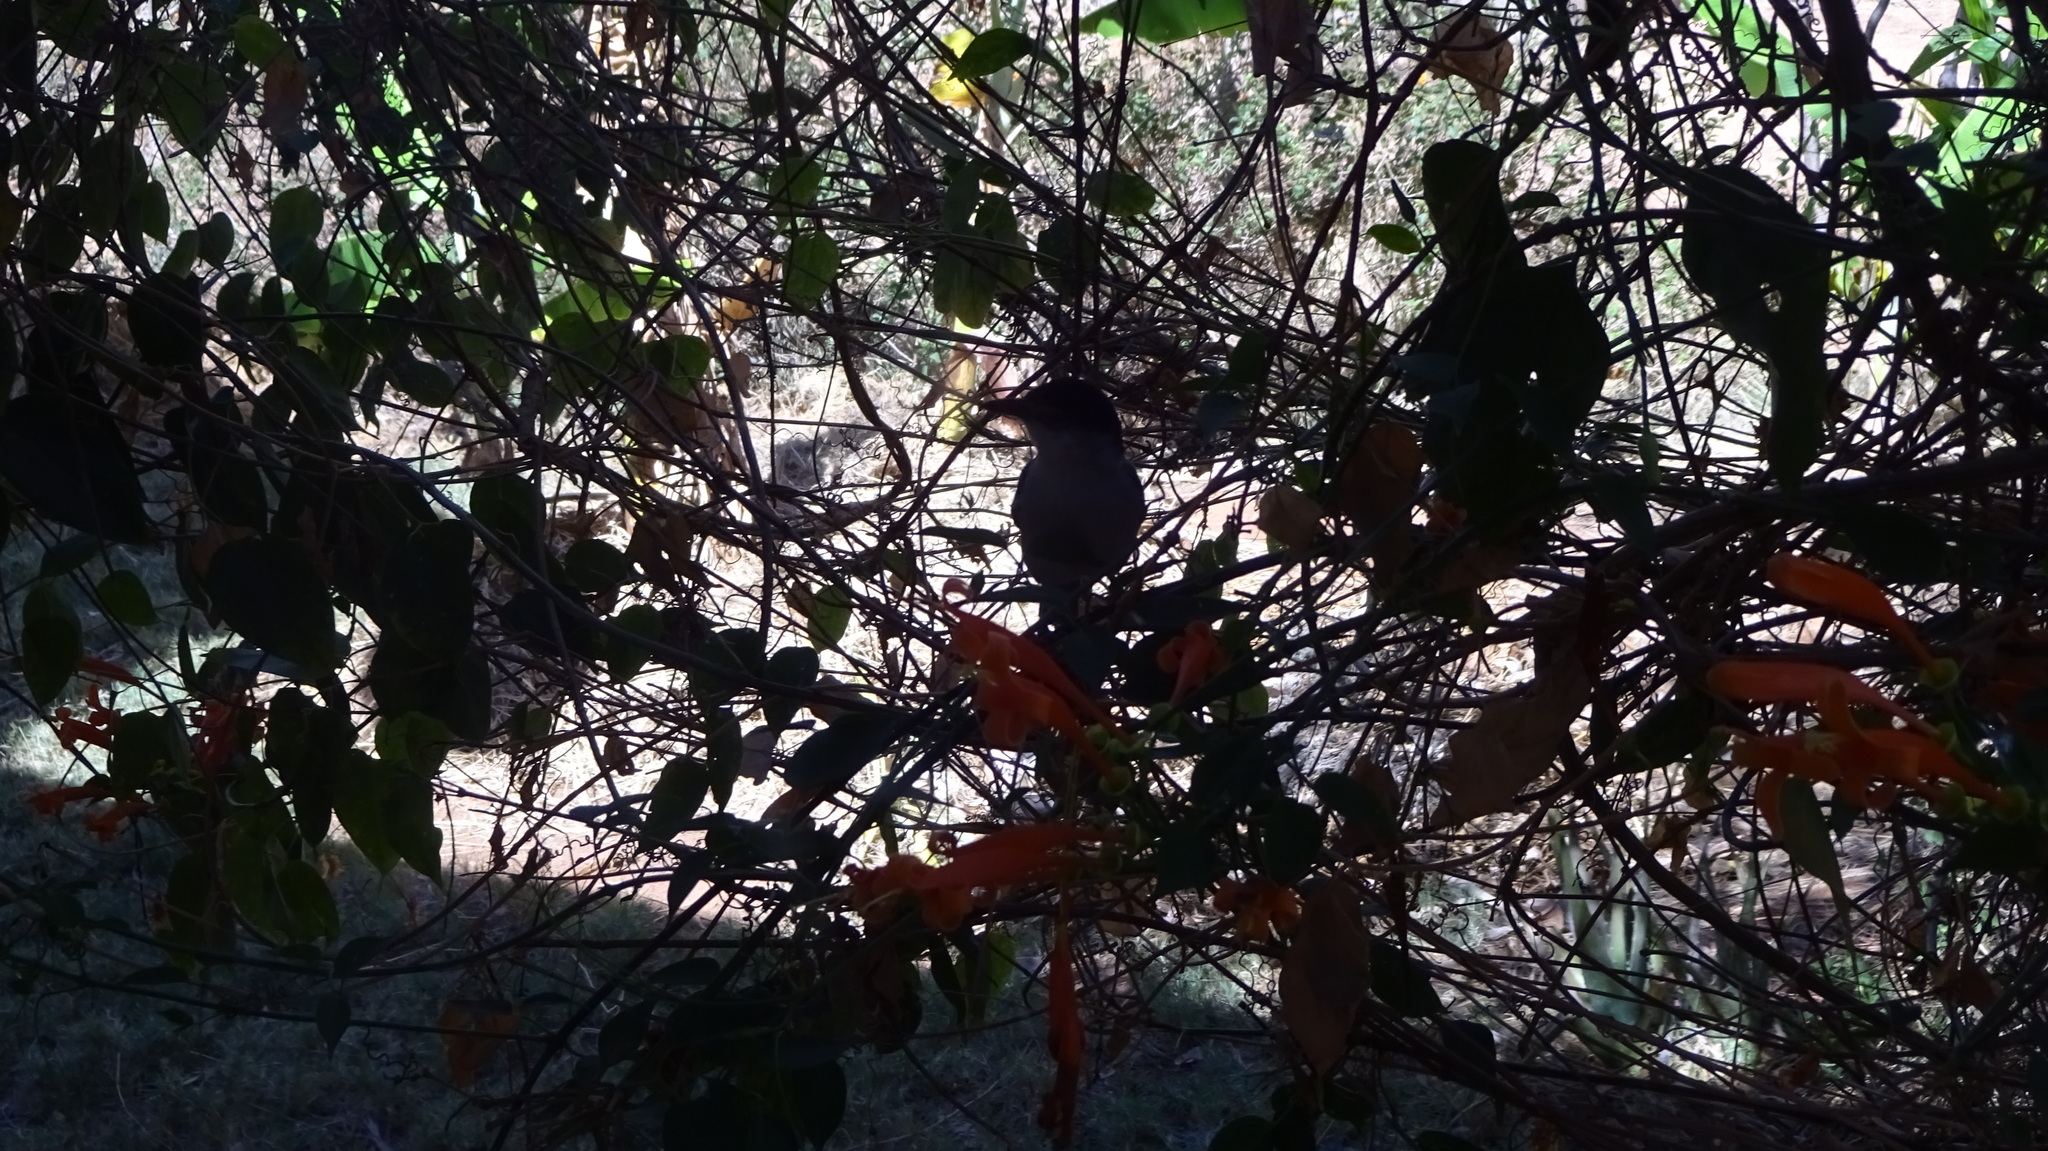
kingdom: Animalia
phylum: Chordata
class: Aves
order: Passeriformes
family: Malaconotidae
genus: Dryoscopus
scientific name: Dryoscopus cubla
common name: Black-backed puffback
